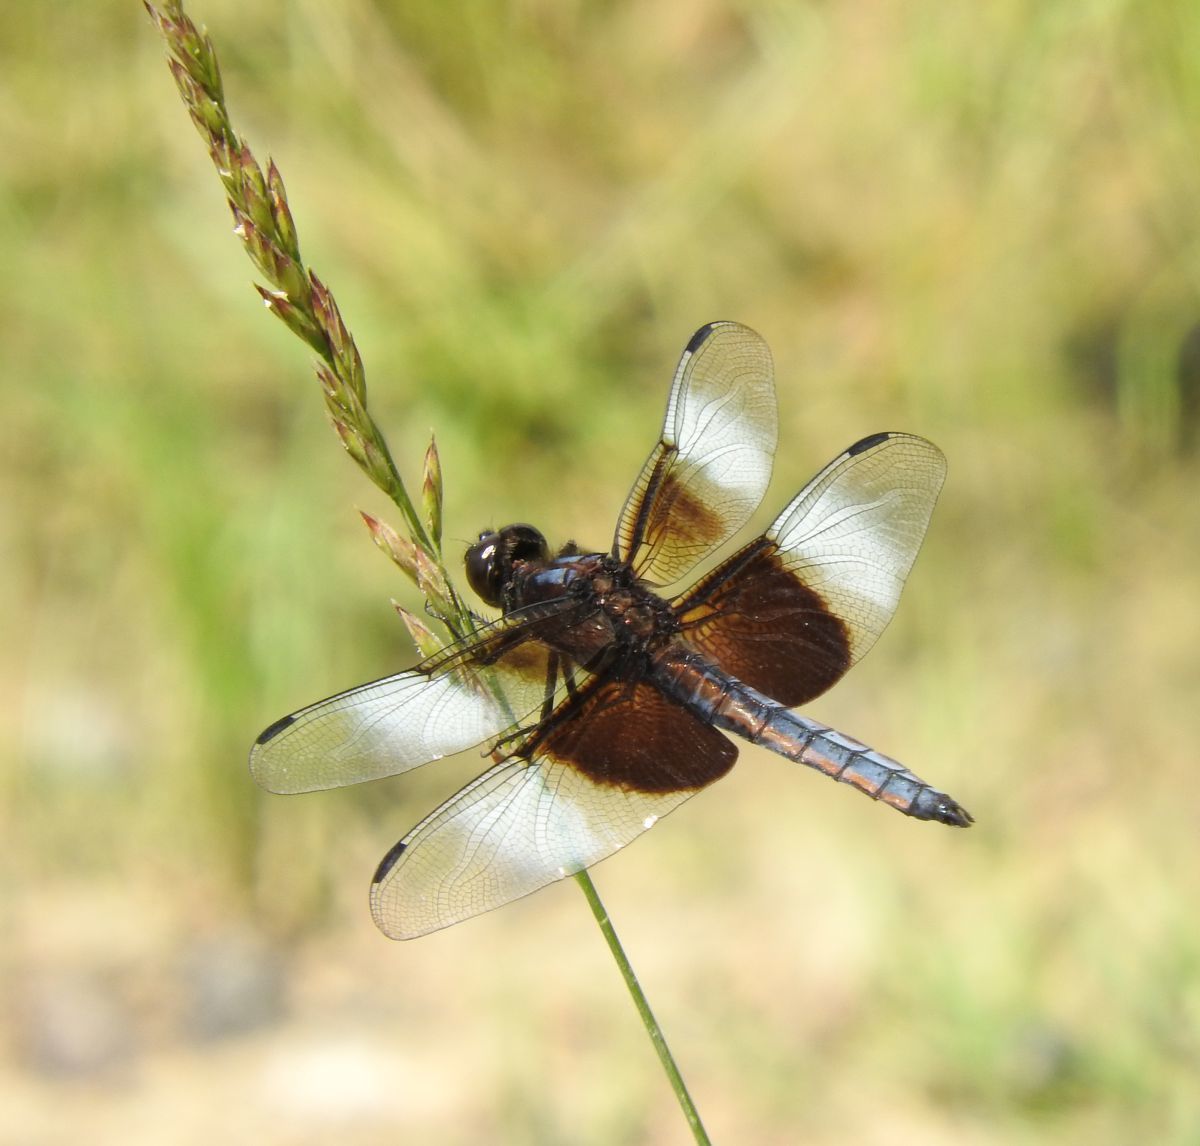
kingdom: Animalia
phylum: Arthropoda
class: Insecta
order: Odonata
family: Libellulidae
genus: Libellula
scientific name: Libellula luctuosa
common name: Widow skimmer
